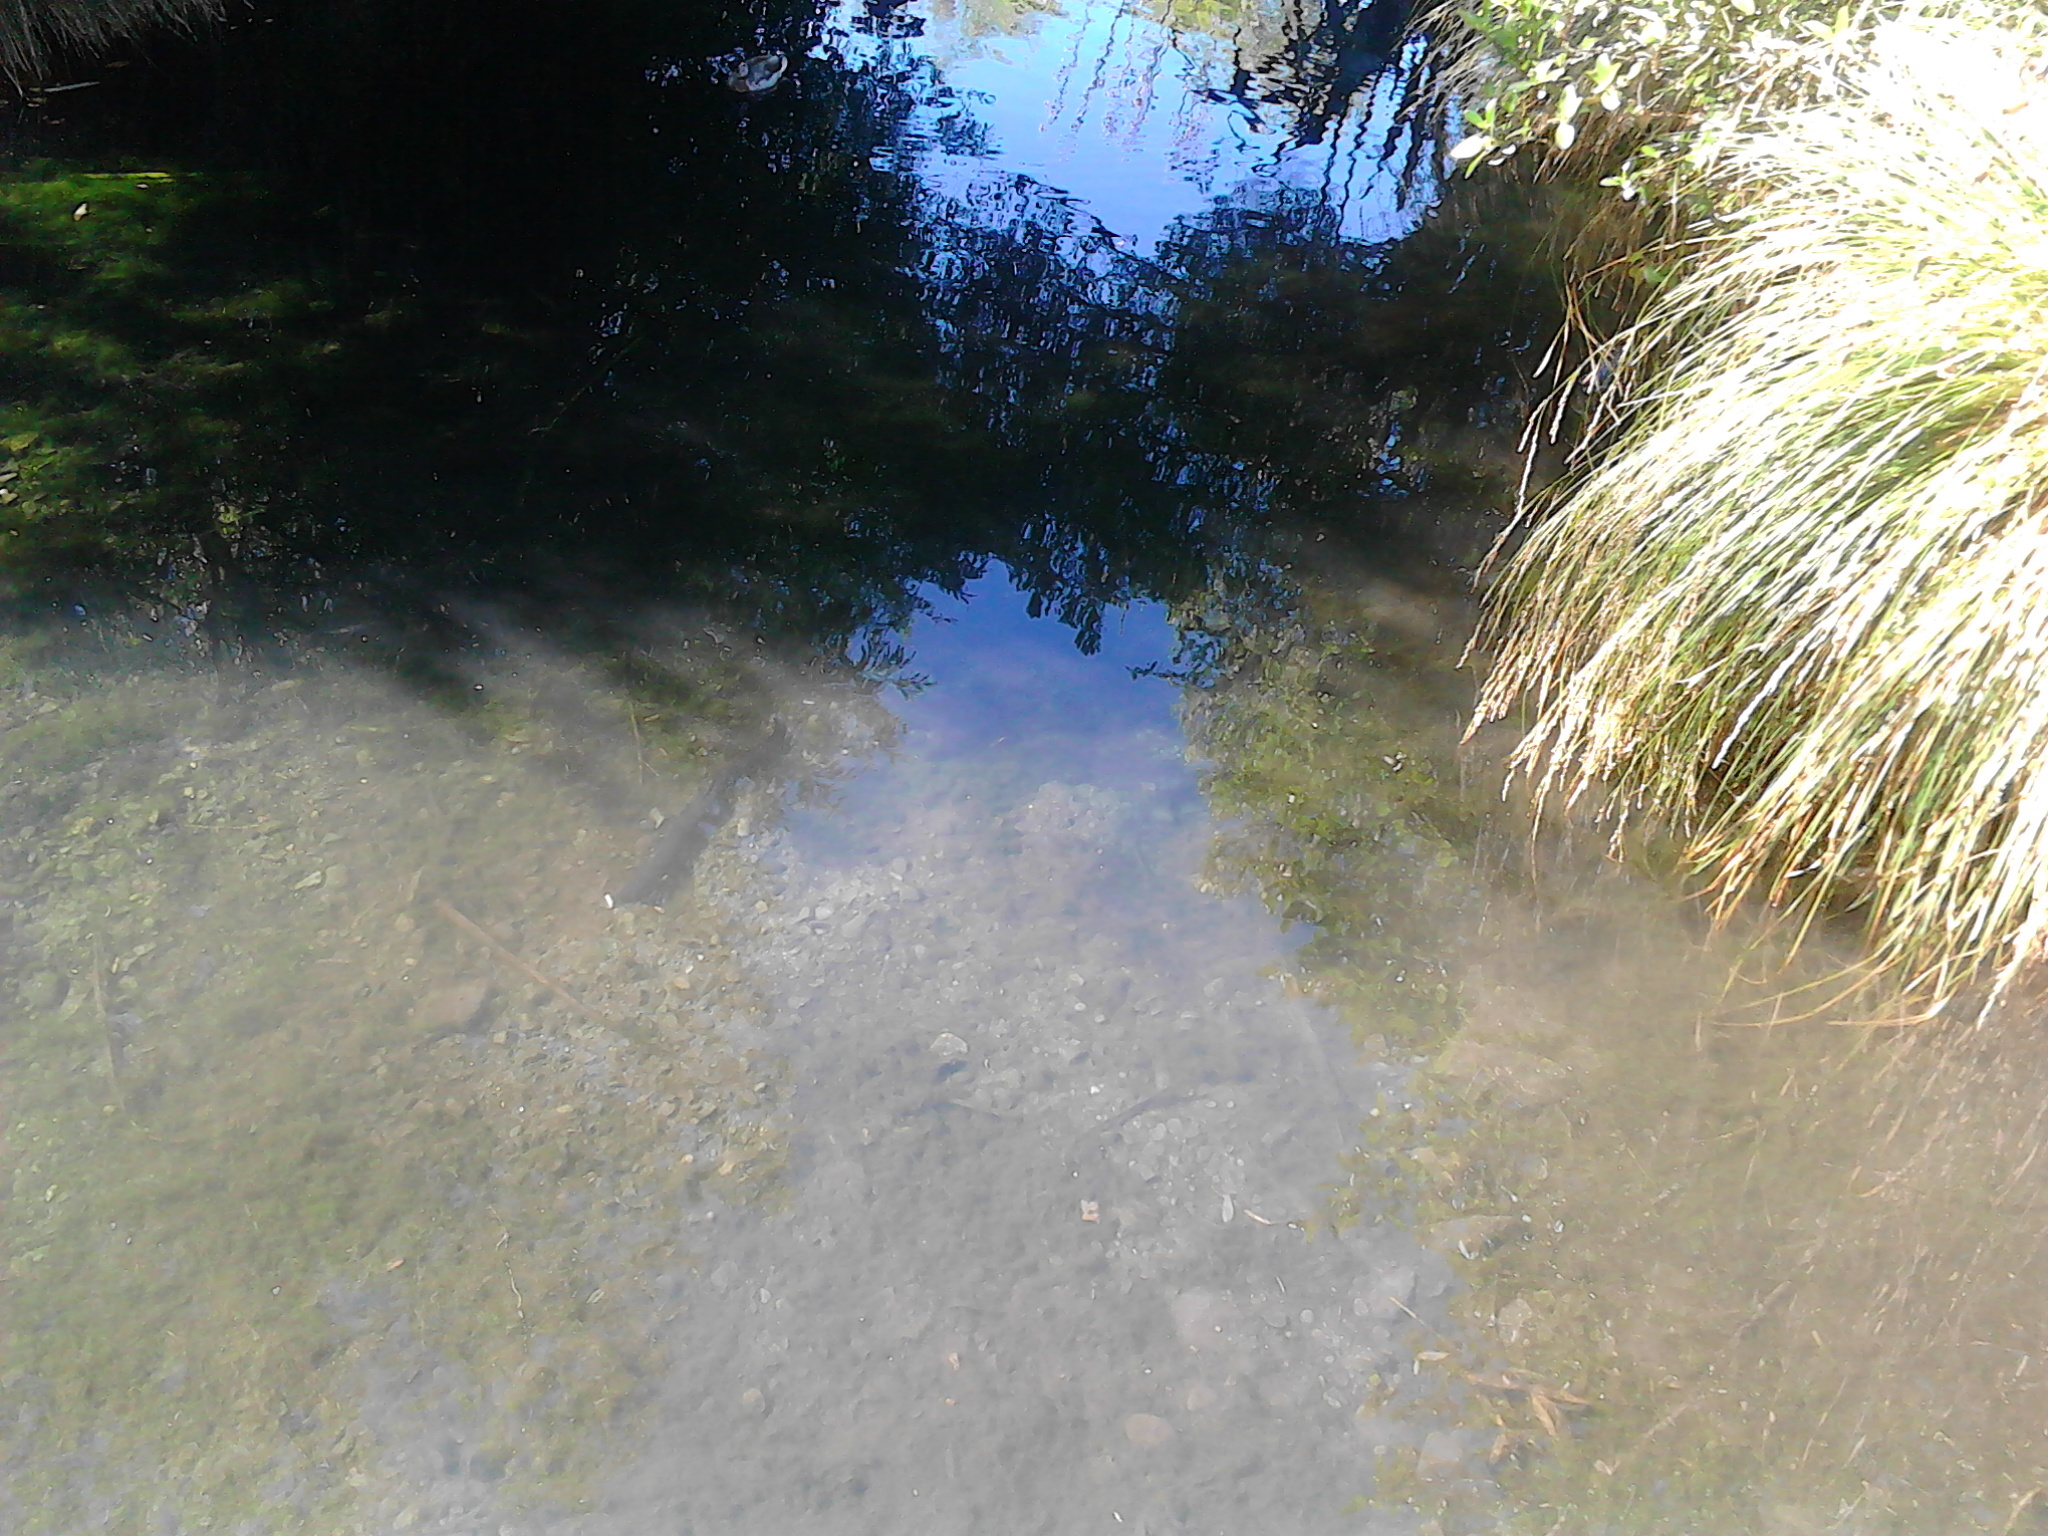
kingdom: Animalia
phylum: Chordata
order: Anguilliformes
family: Anguillidae
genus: Anguilla
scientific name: Anguilla
